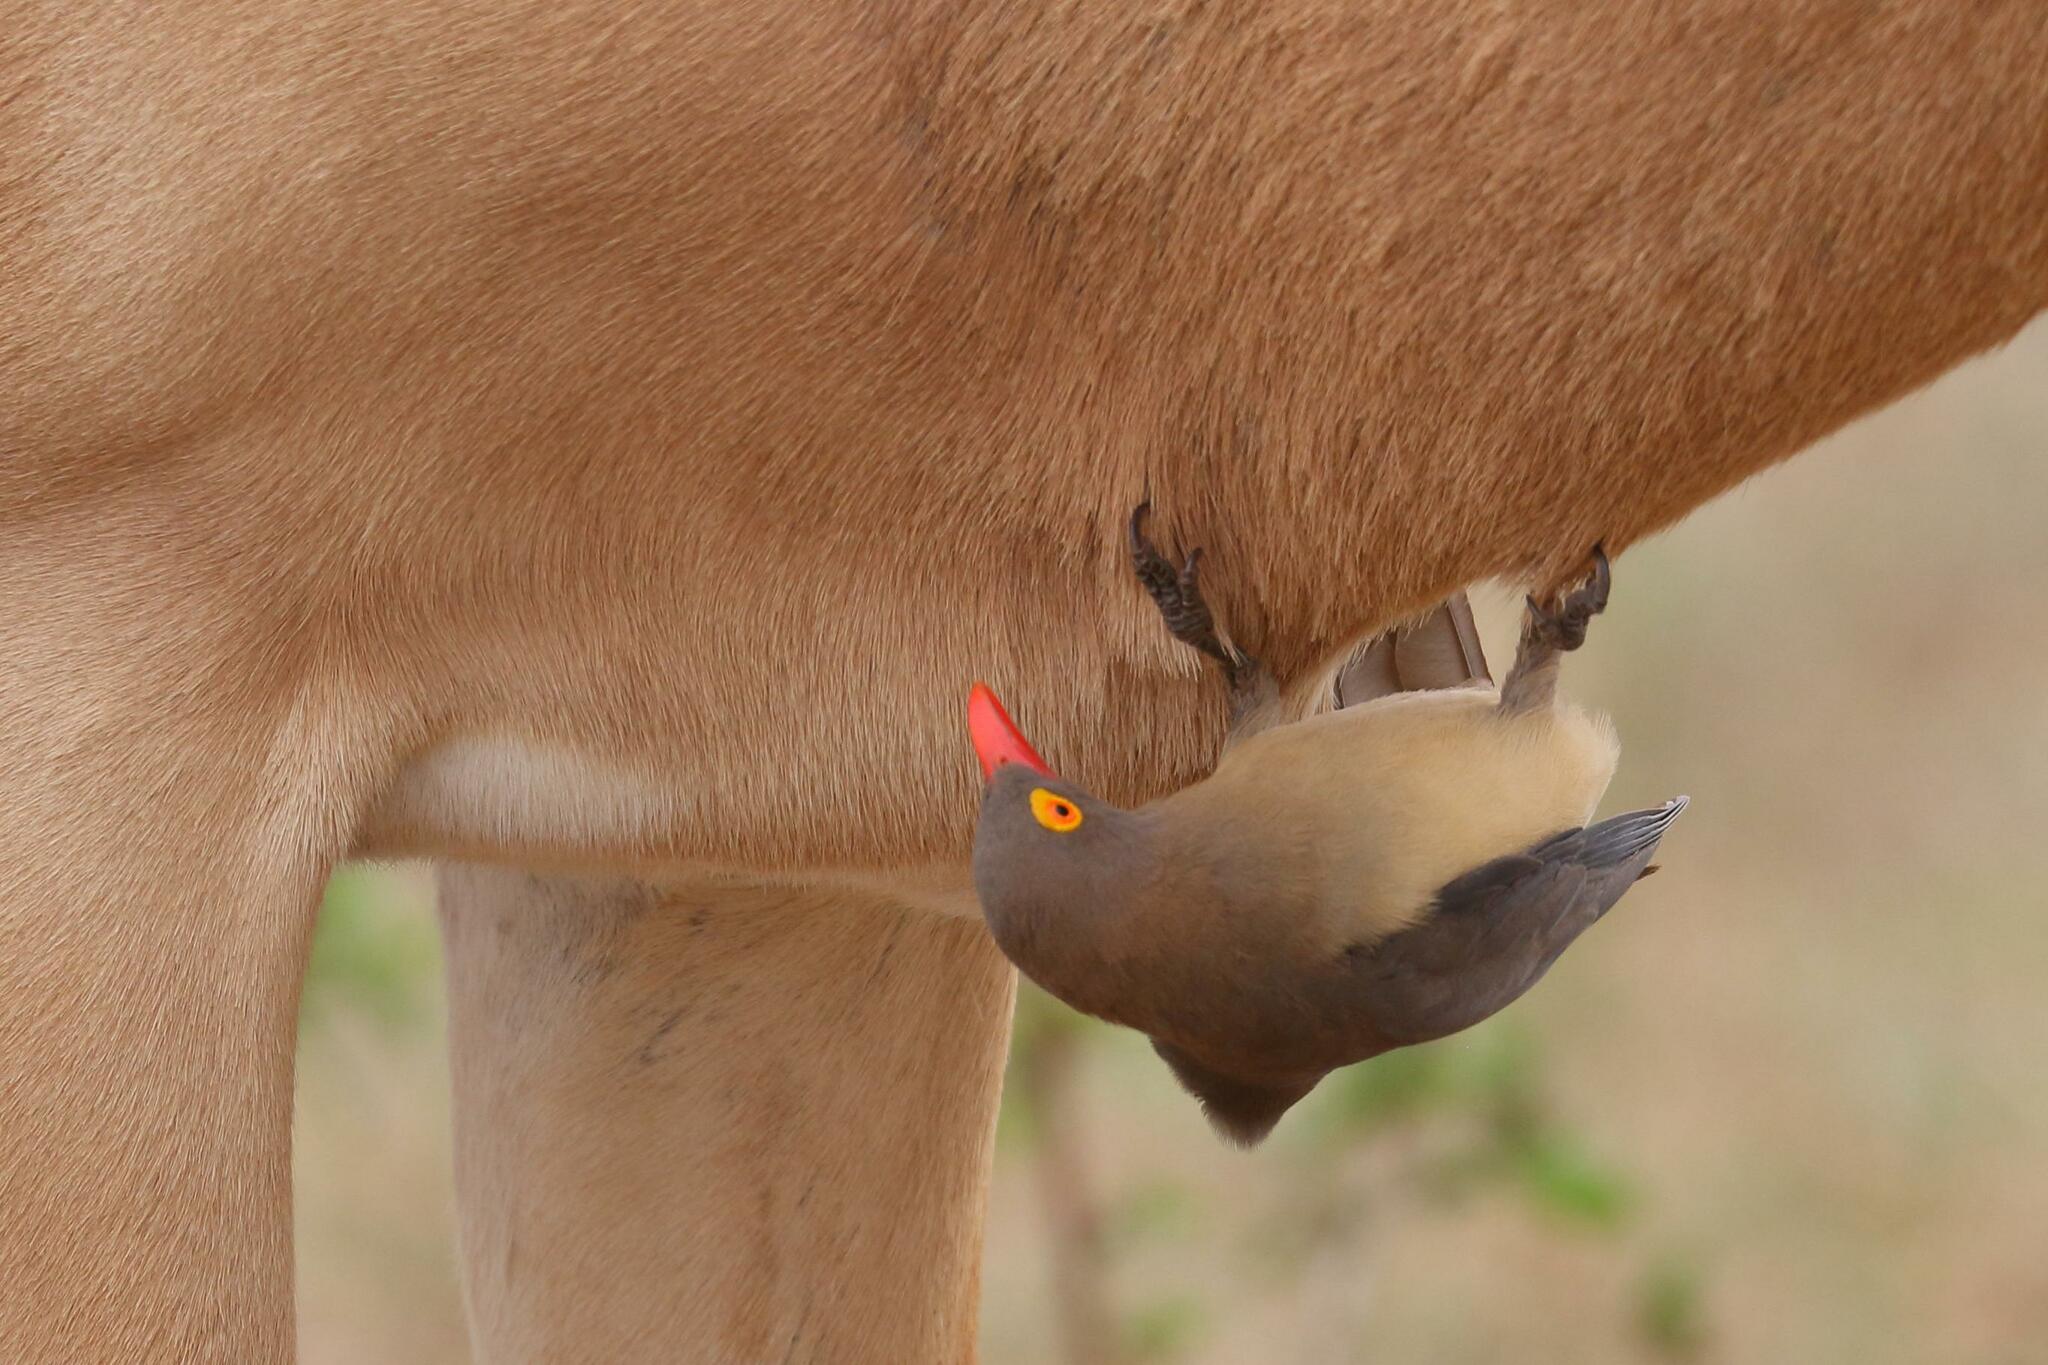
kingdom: Animalia
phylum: Chordata
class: Aves
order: Passeriformes
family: Buphagidae
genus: Buphagus
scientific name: Buphagus erythrorhynchus
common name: Red-billed oxpecker
